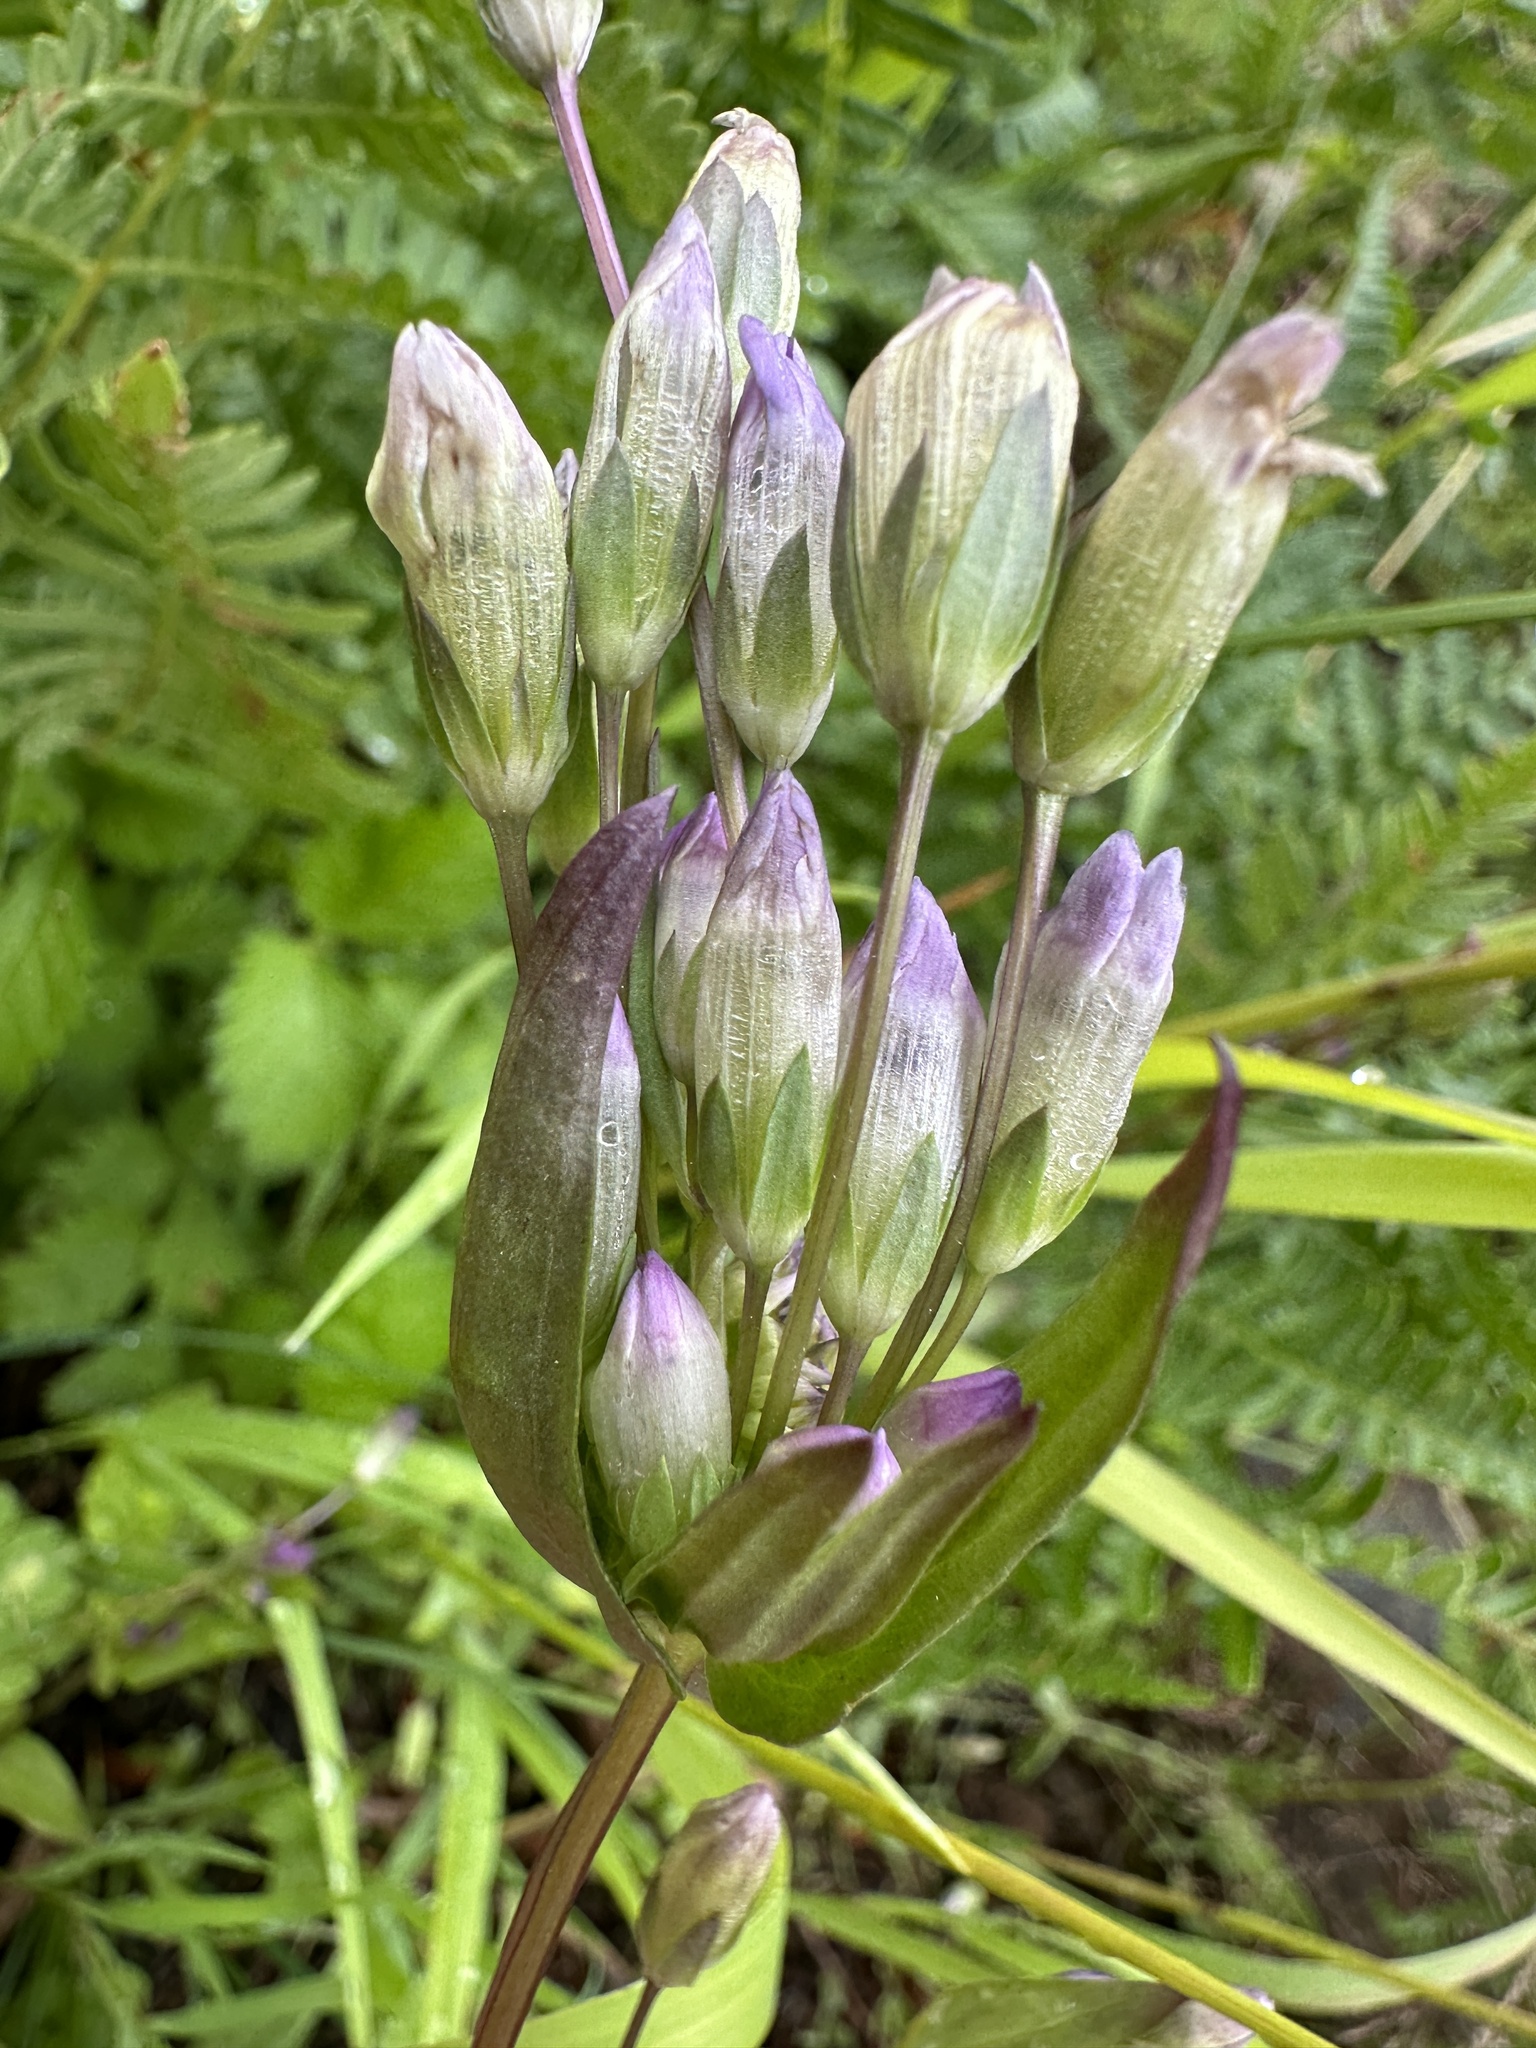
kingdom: Plantae
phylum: Tracheophyta
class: Magnoliopsida
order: Gentianales
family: Gentianaceae
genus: Gentianella
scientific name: Gentianella amarella
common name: Autumn gentian
